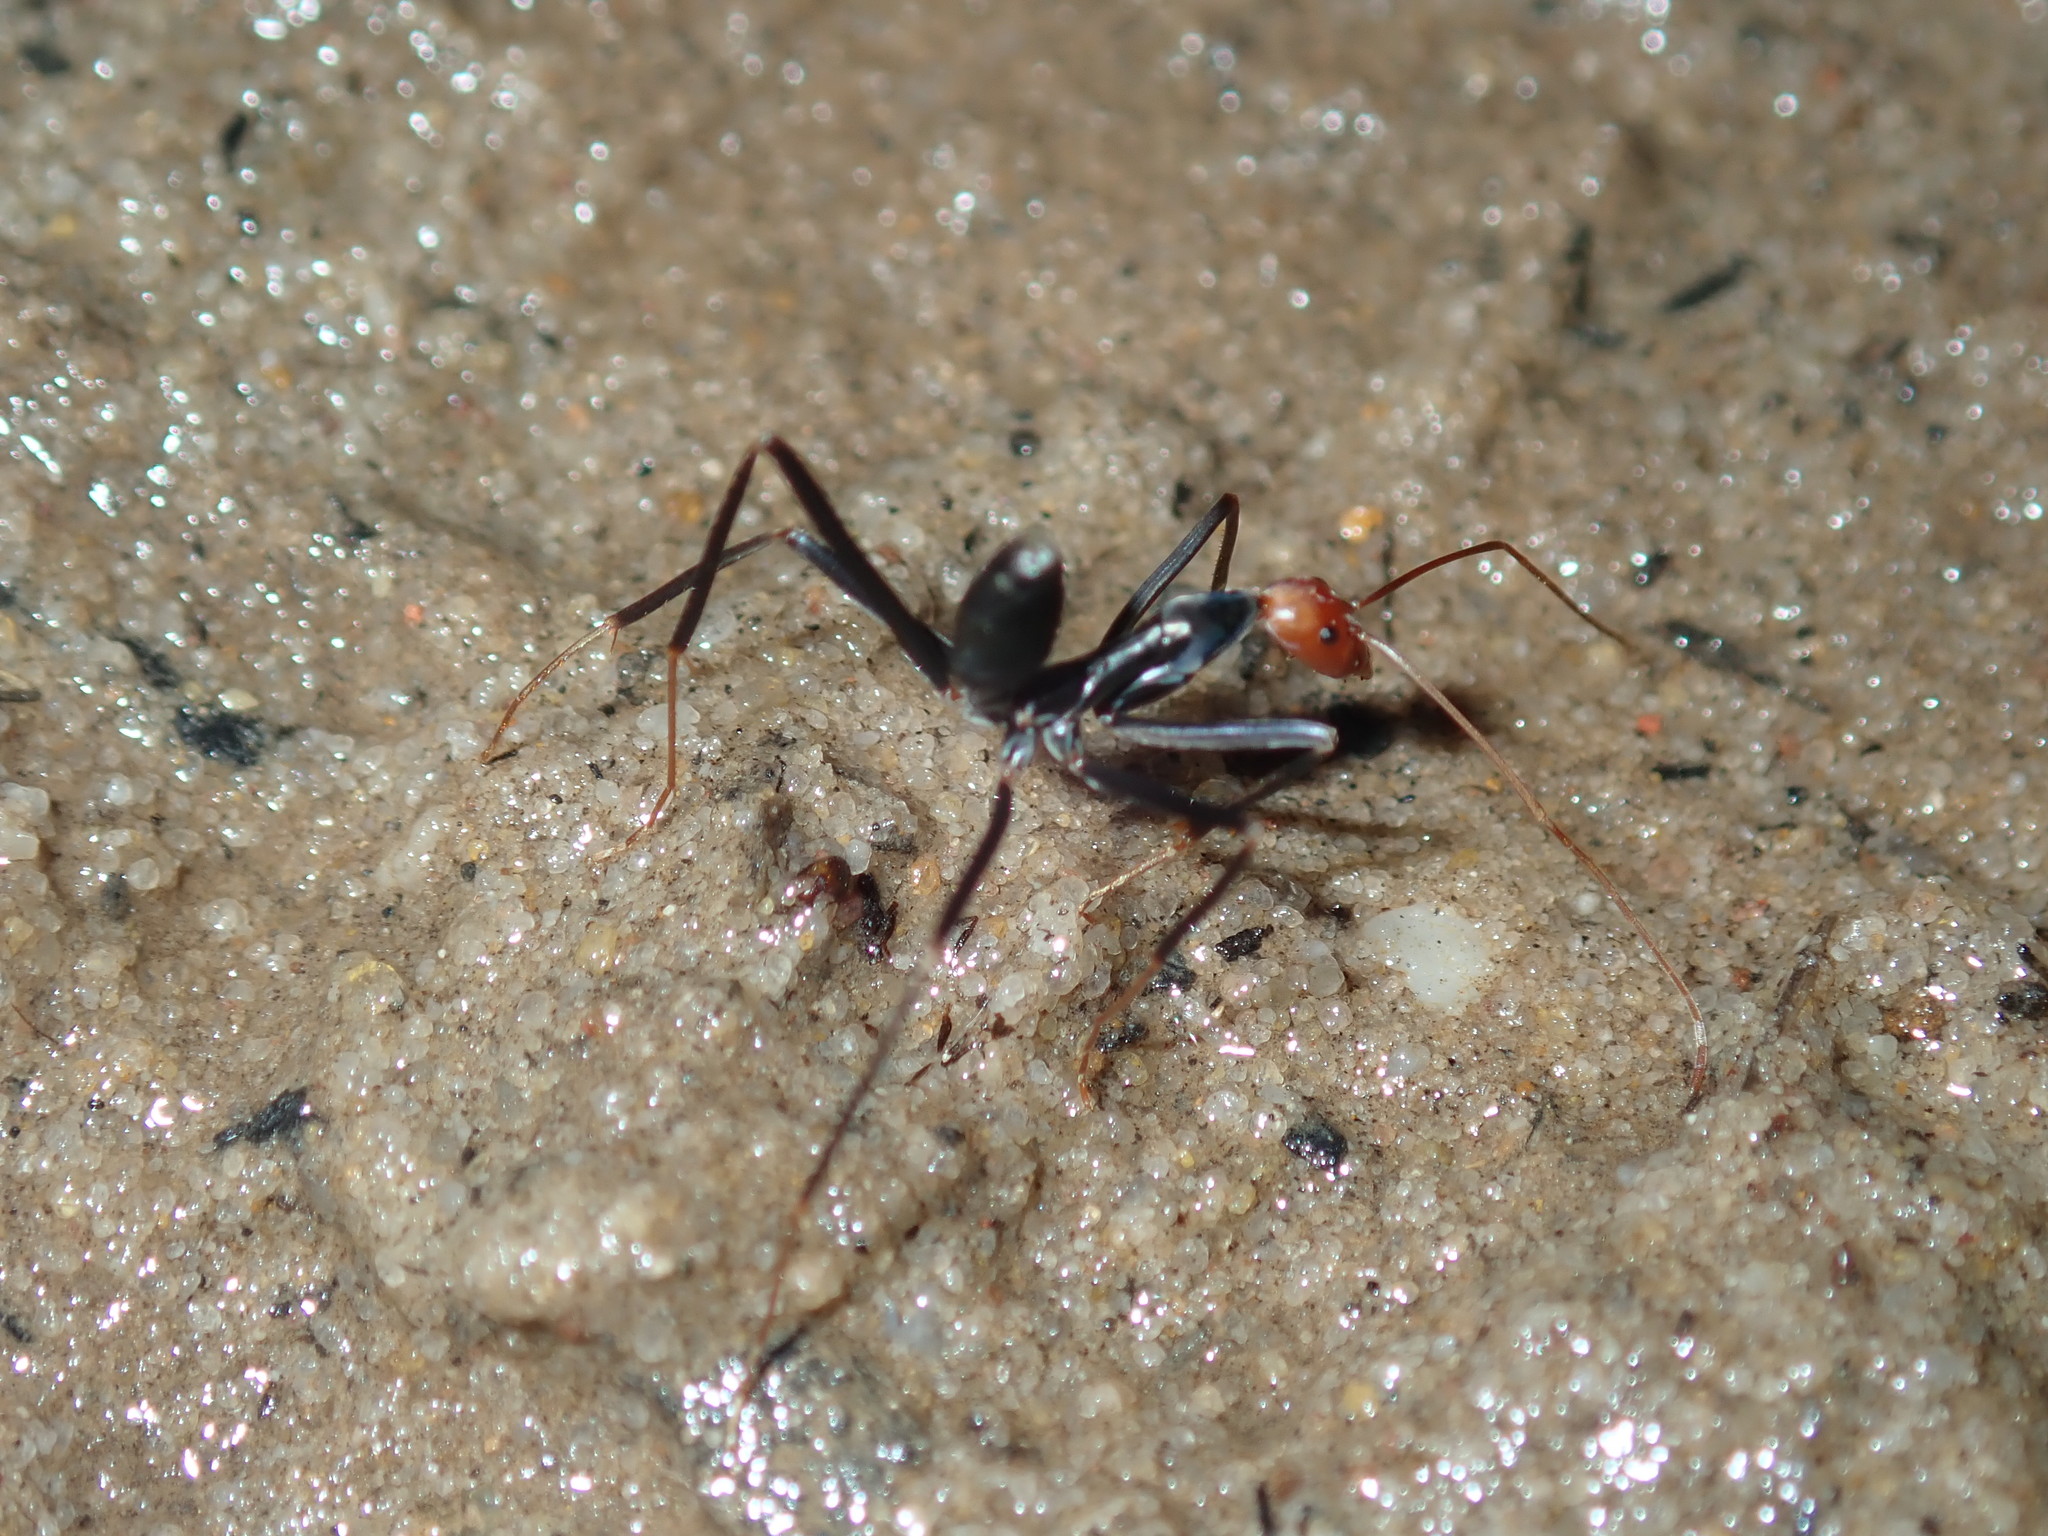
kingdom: Animalia
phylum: Arthropoda
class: Insecta
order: Hymenoptera
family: Formicidae
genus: Leptomyrmex
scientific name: Leptomyrmex erythrocephalus
